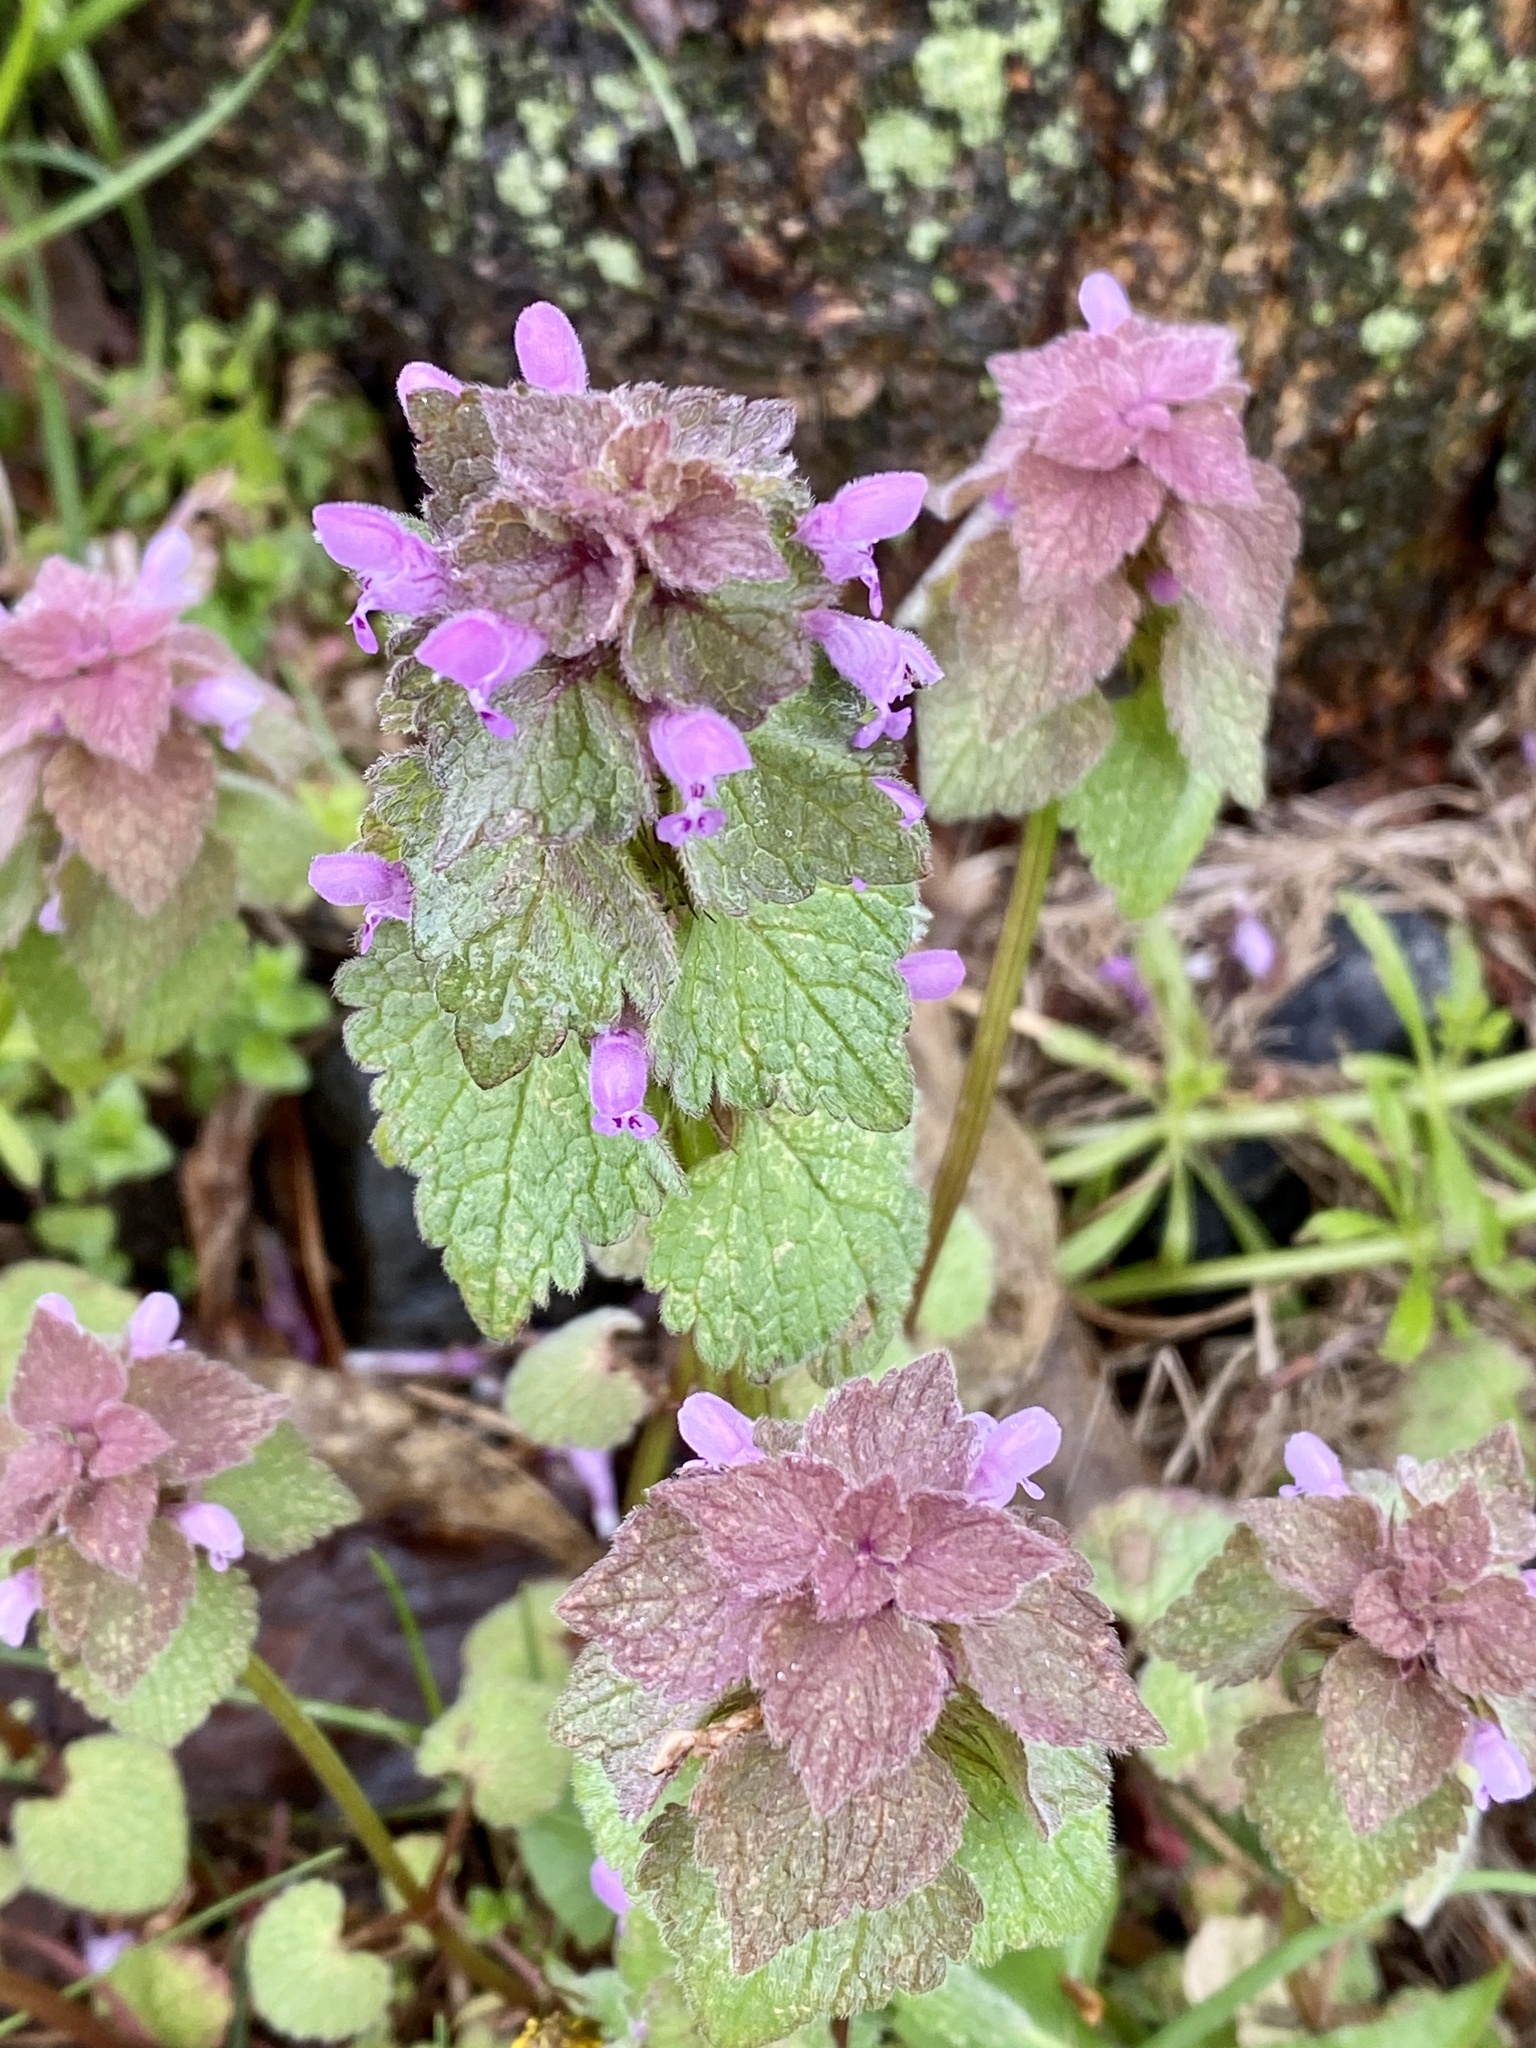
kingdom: Plantae
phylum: Tracheophyta
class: Magnoliopsida
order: Lamiales
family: Lamiaceae
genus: Lamium
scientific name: Lamium purpureum
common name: Red dead-nettle
